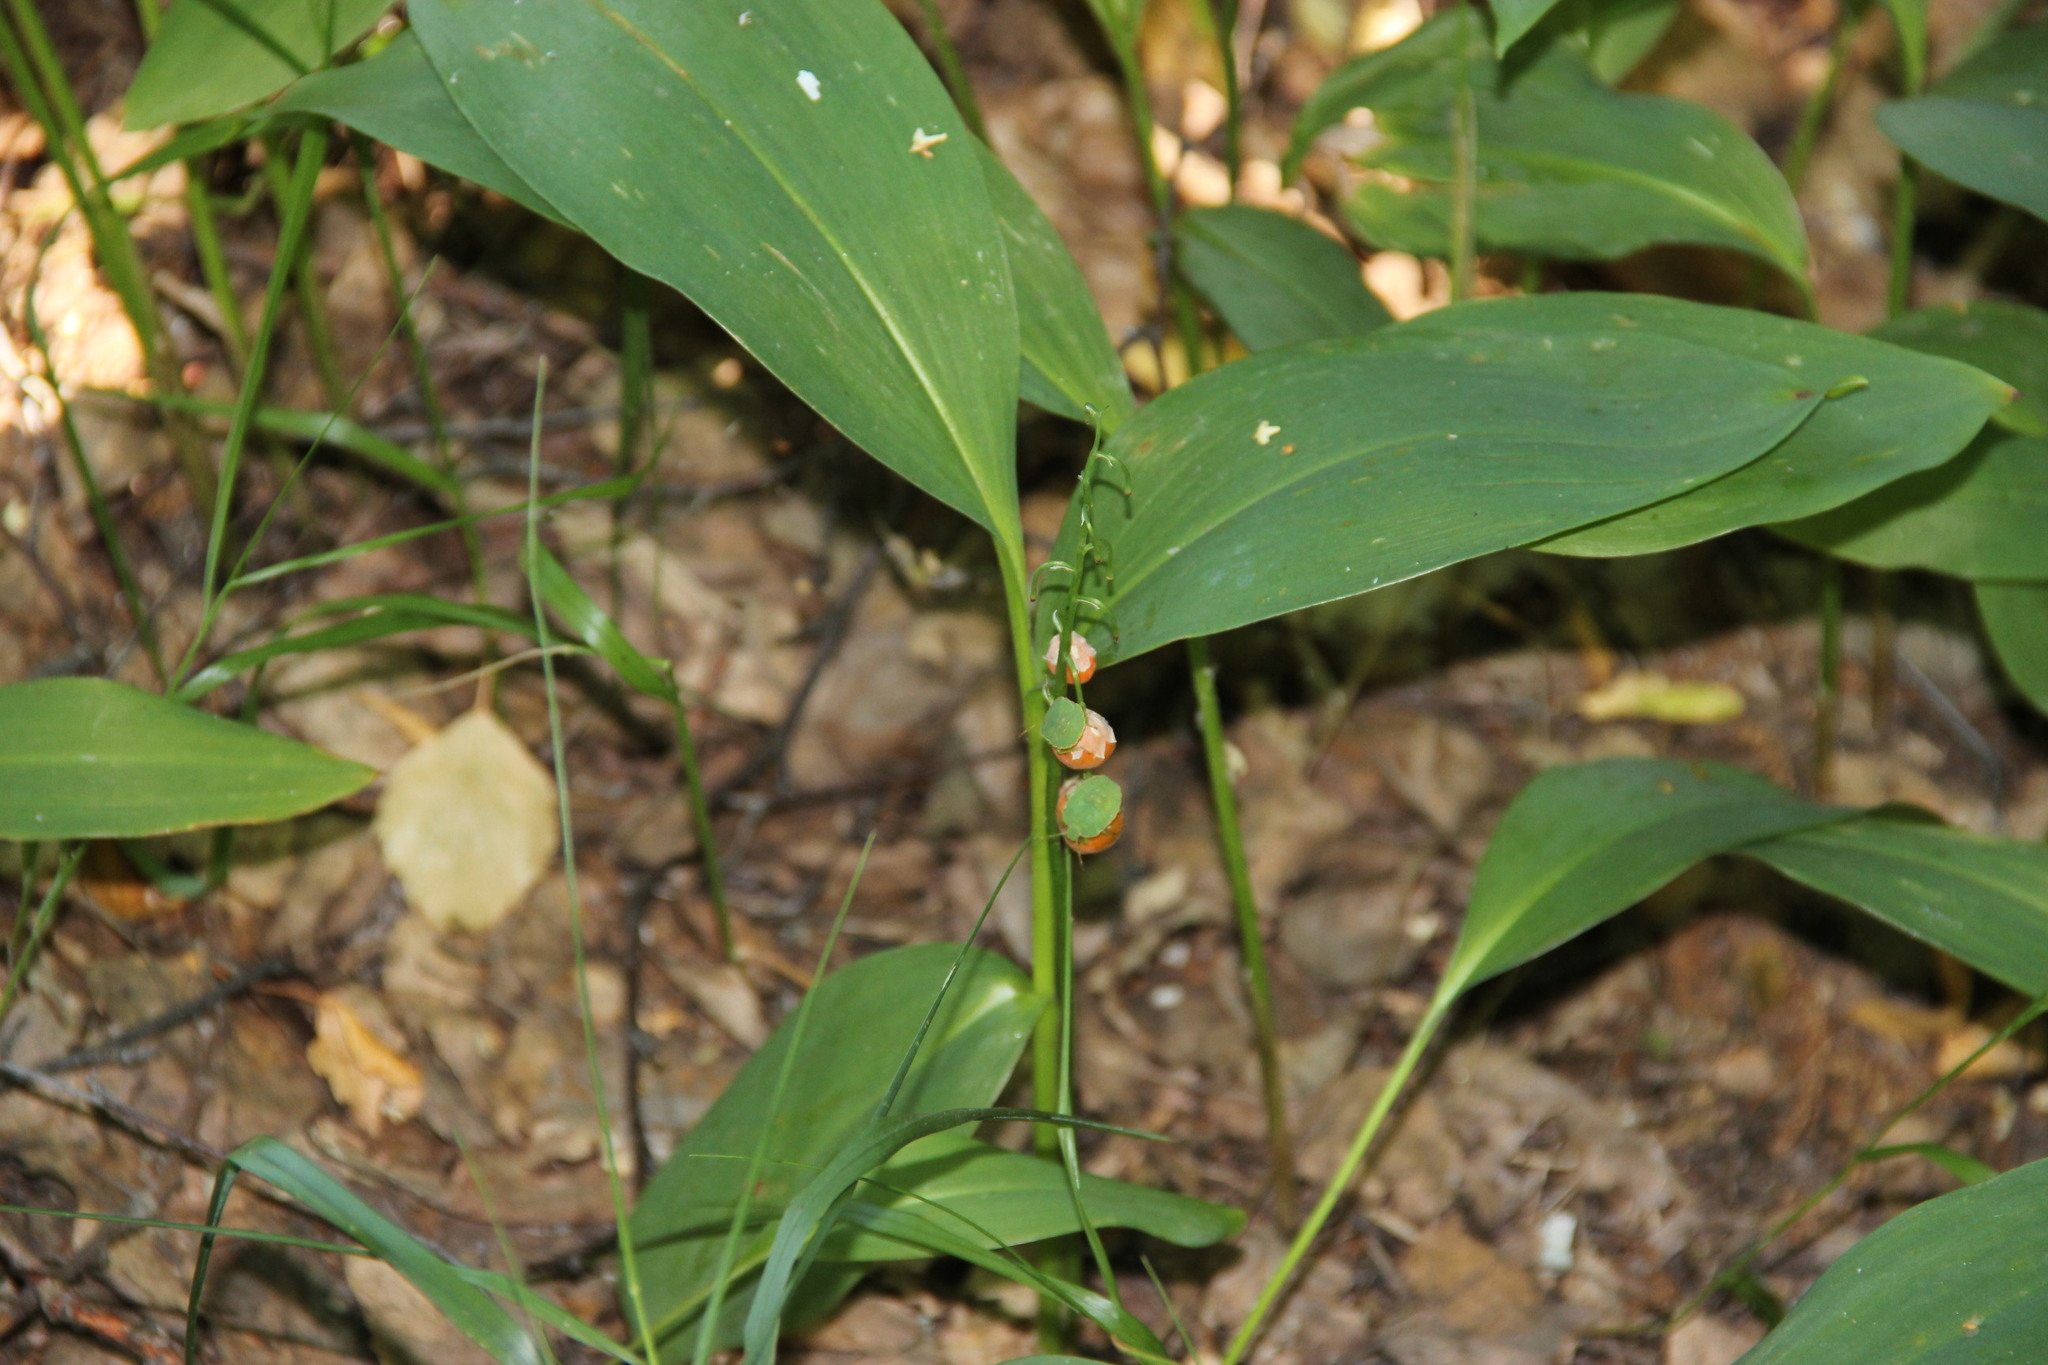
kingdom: Plantae
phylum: Tracheophyta
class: Liliopsida
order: Asparagales
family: Asparagaceae
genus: Convallaria
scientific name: Convallaria majalis
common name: Lily-of-the-valley
